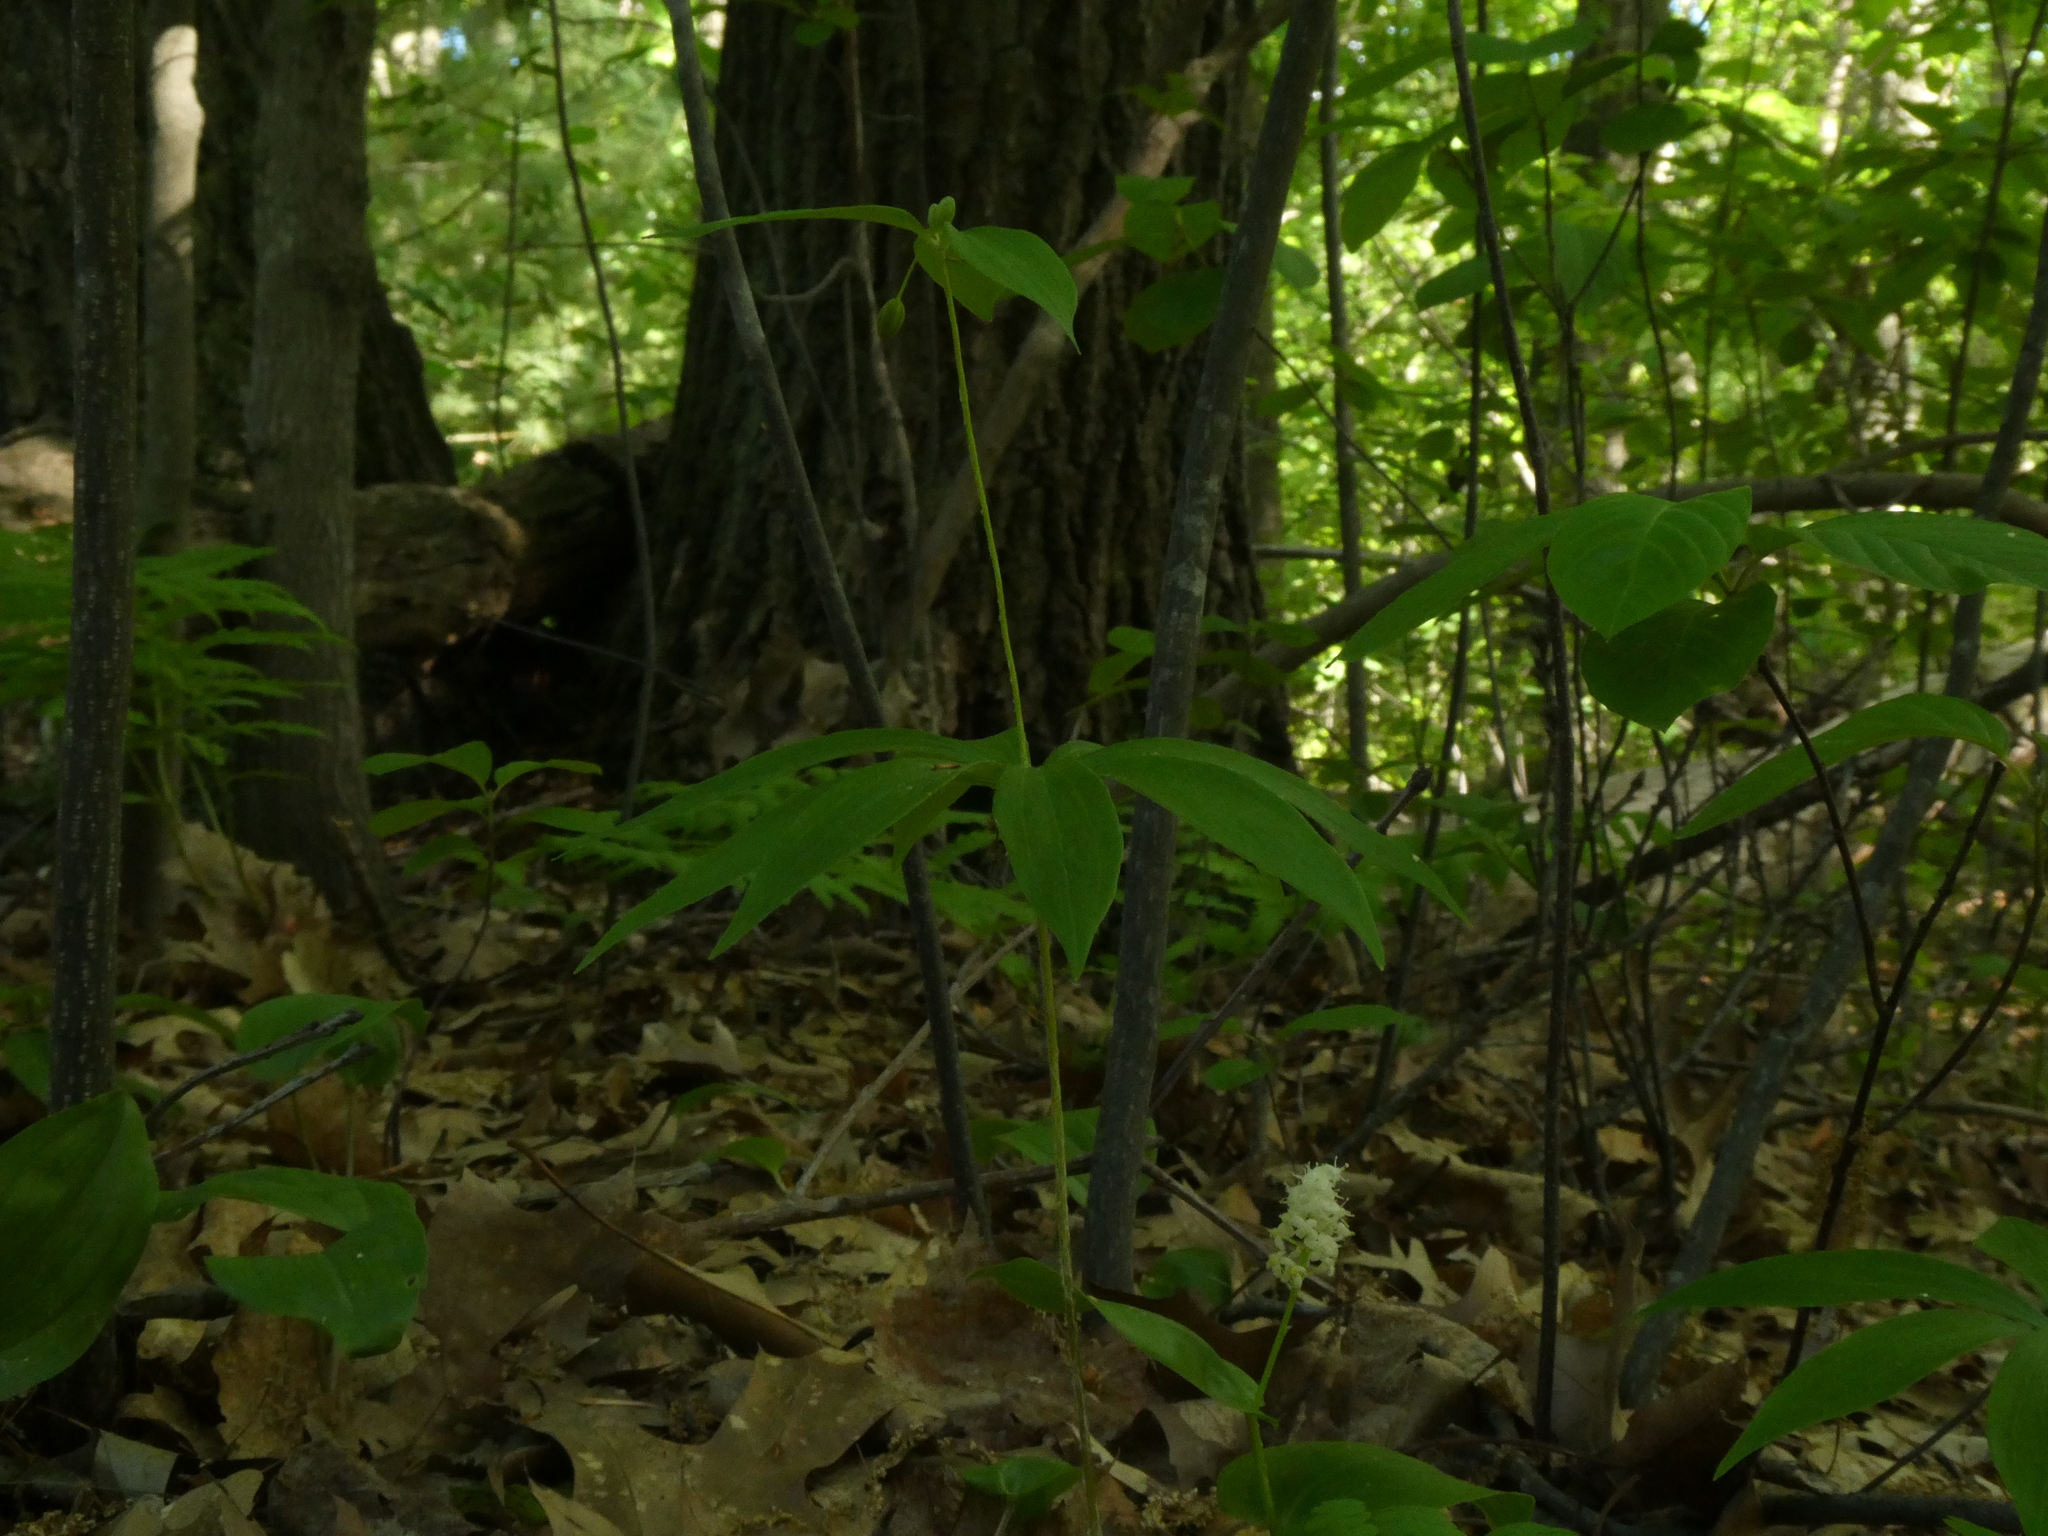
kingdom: Plantae
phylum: Tracheophyta
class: Liliopsida
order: Liliales
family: Liliaceae
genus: Medeola
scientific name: Medeola virginiana
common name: Indian cucumber-root
